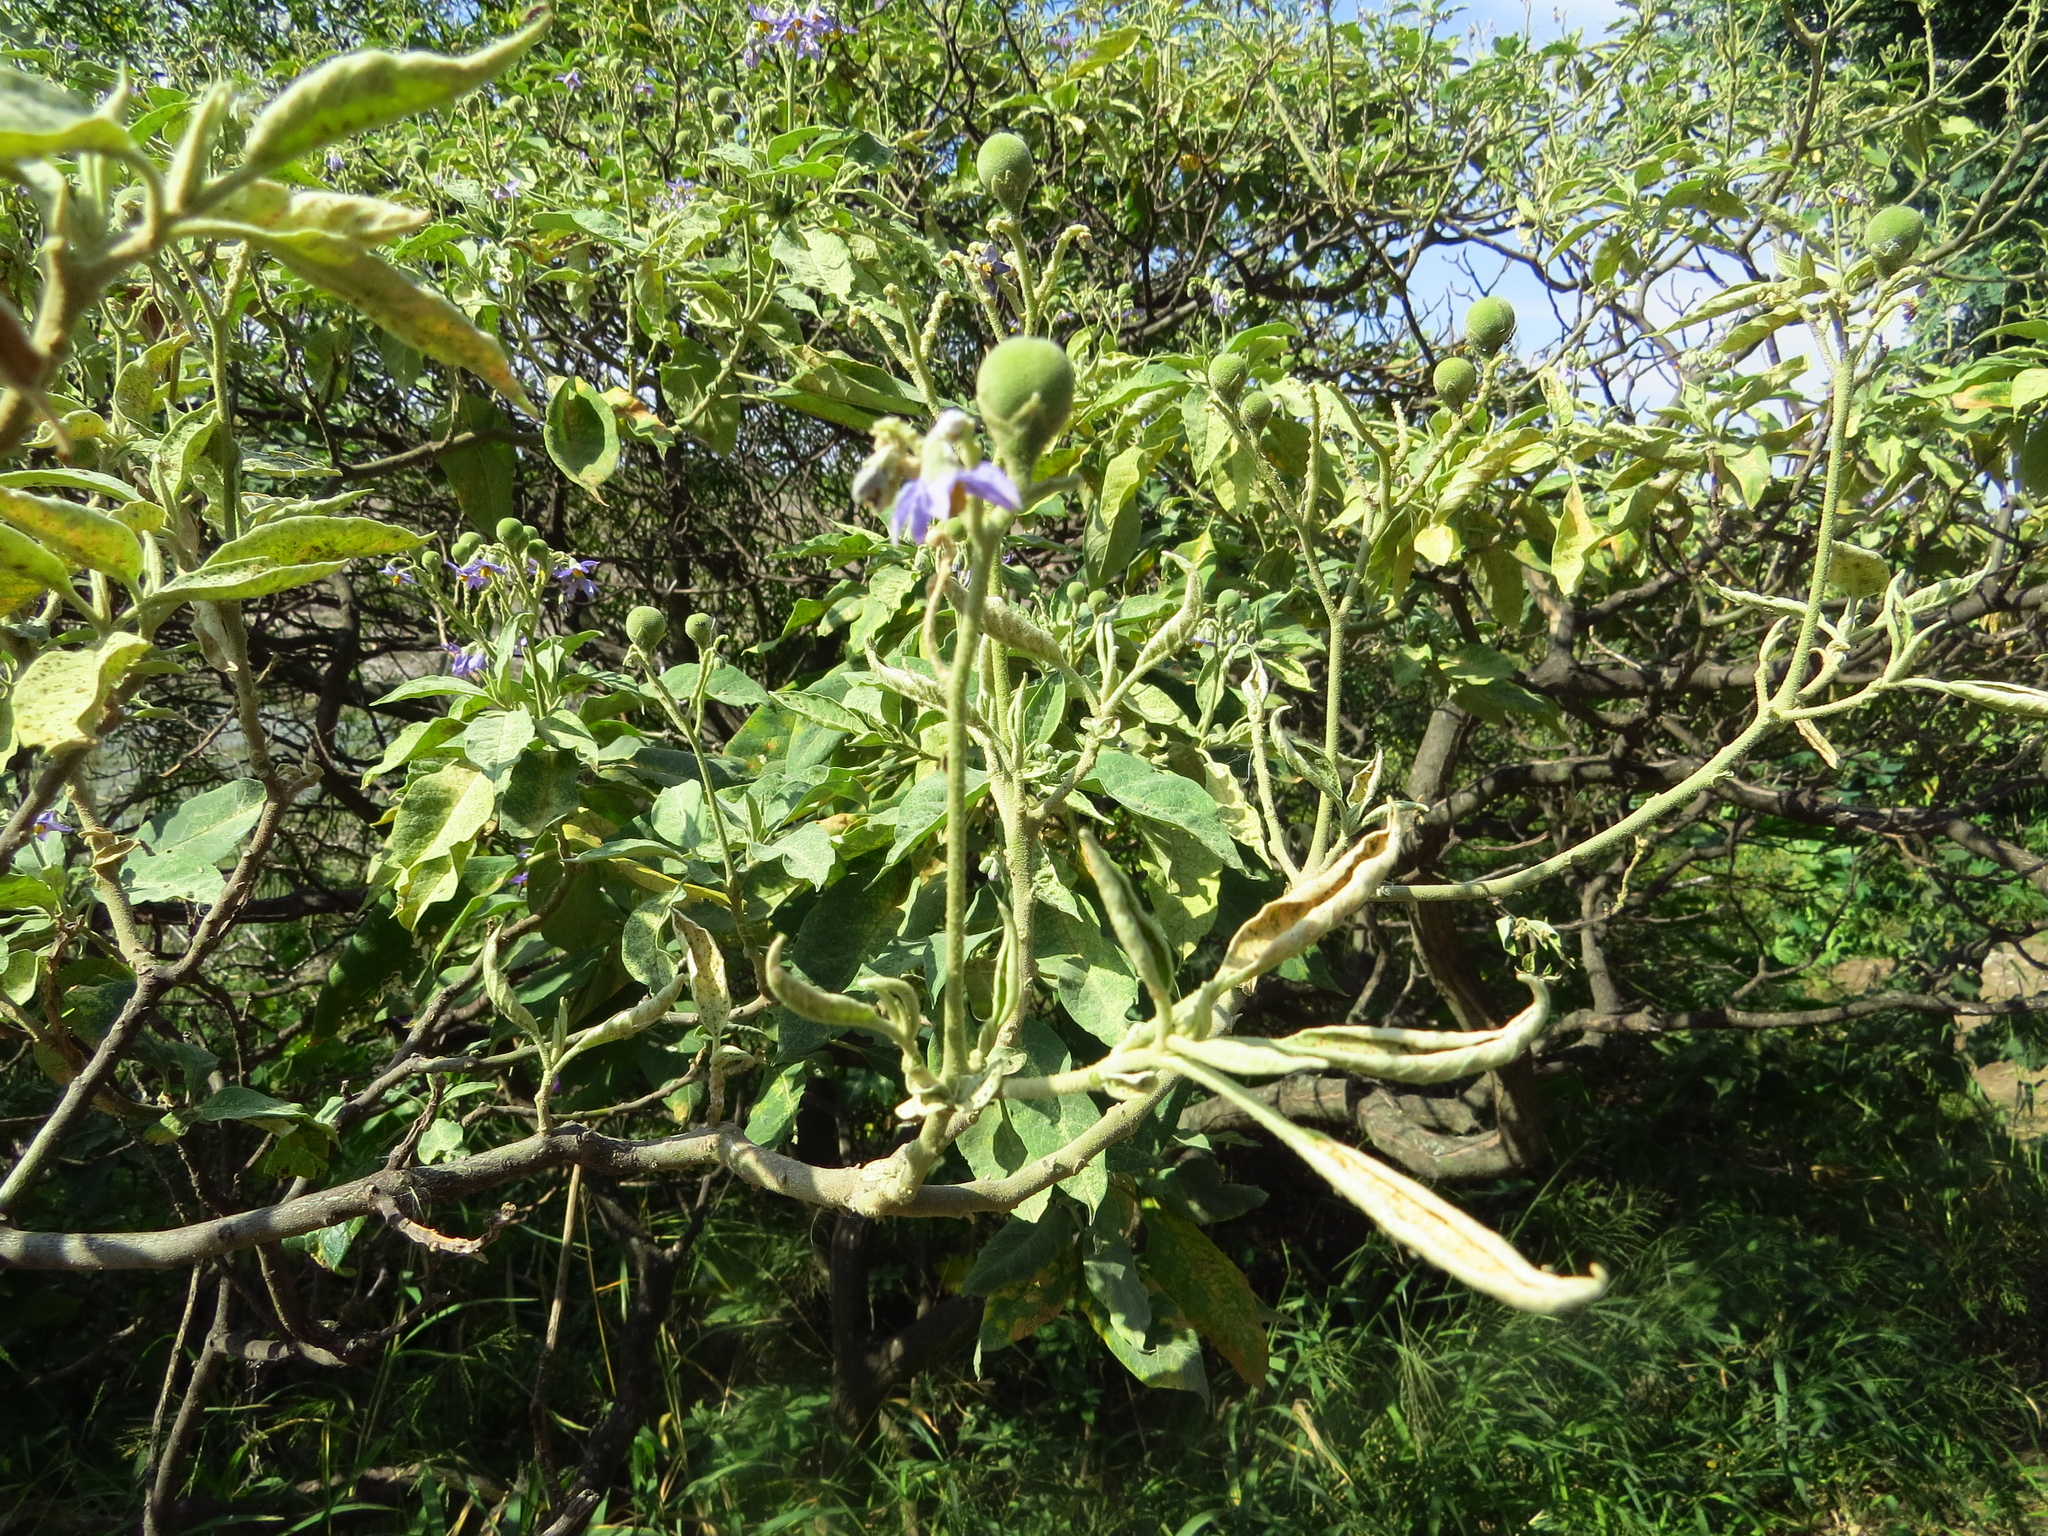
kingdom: Plantae
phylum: Tracheophyta
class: Magnoliopsida
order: Solanales
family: Solanaceae
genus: Solanum
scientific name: Solanum granulosoleprosum
